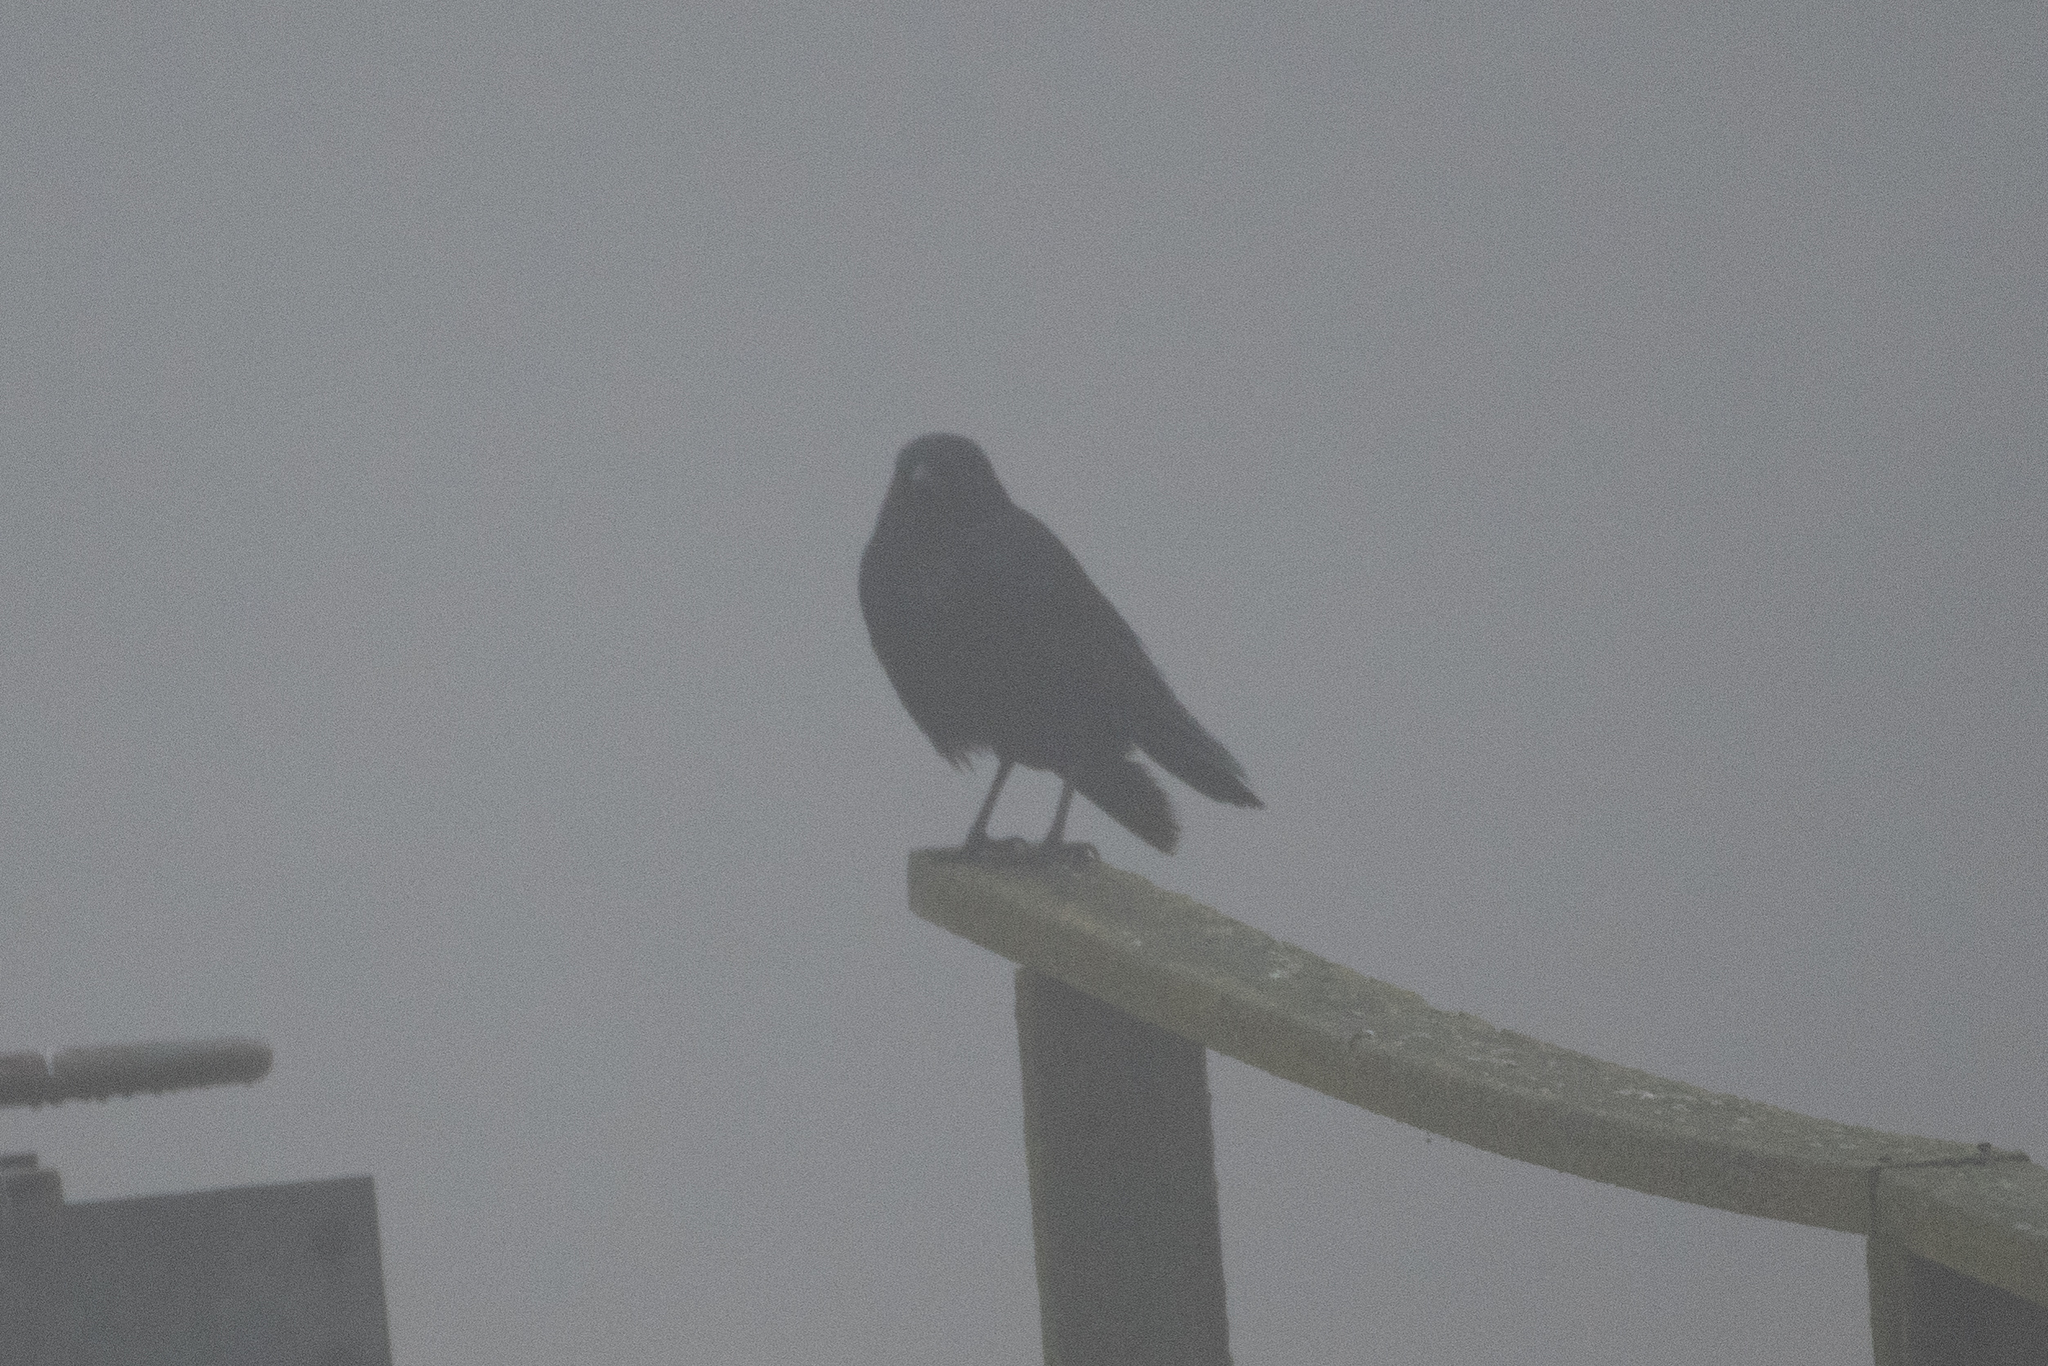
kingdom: Animalia
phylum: Chordata
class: Aves
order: Passeriformes
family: Corvidae
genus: Corvus
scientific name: Corvus brachyrhynchos
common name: American crow
